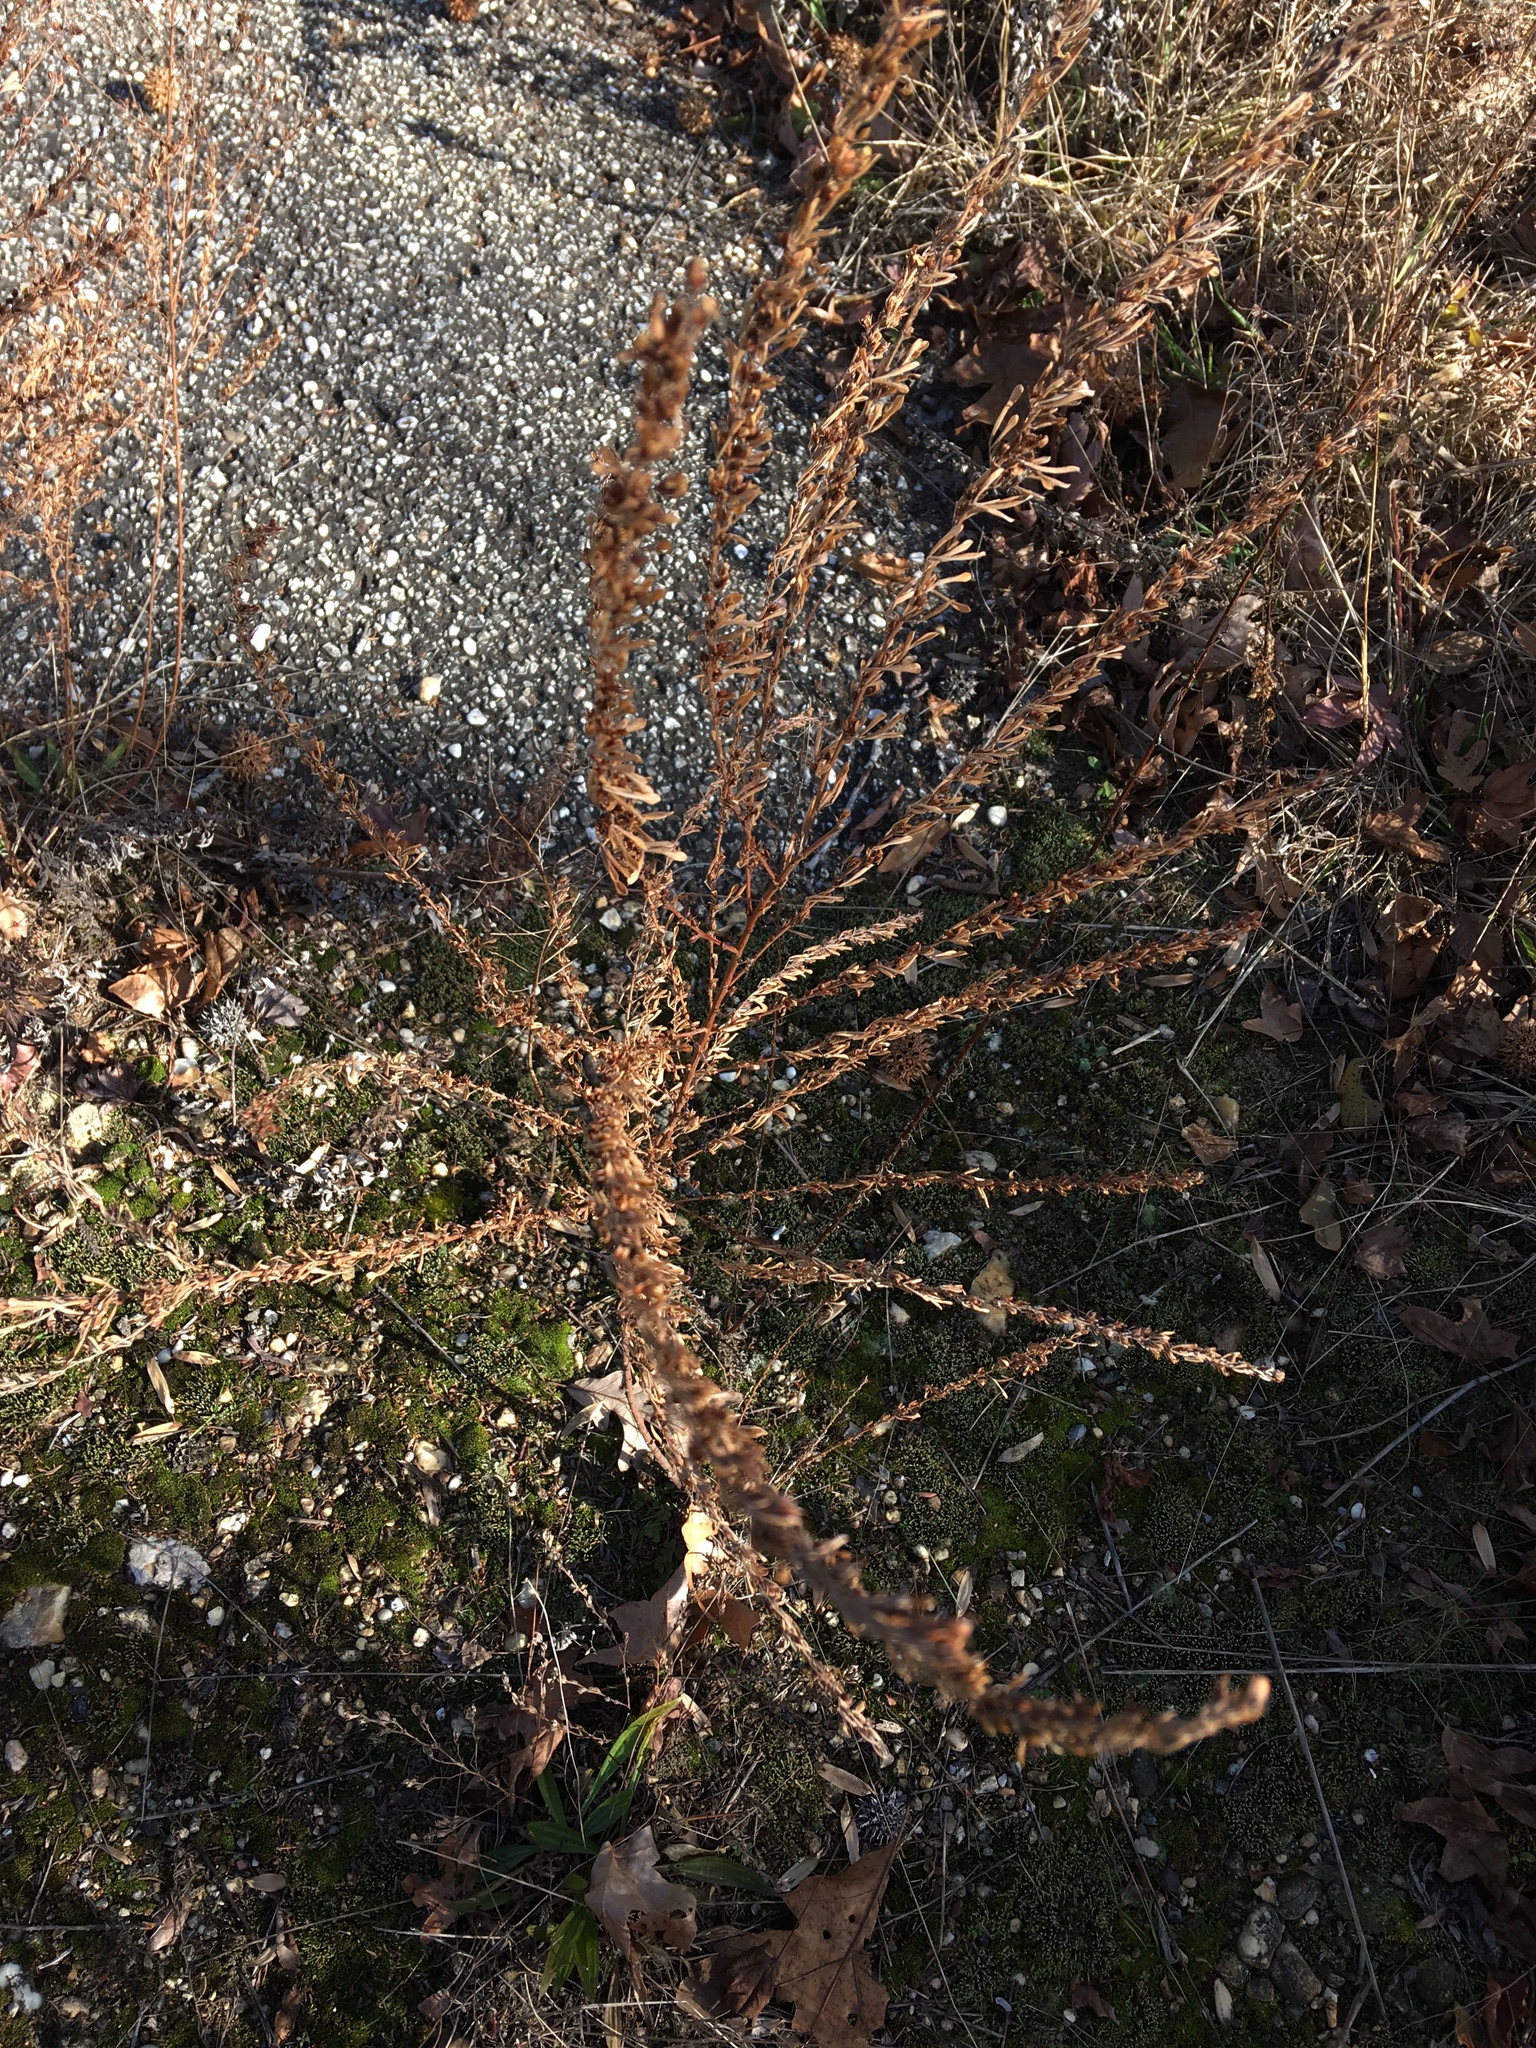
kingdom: Plantae
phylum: Tracheophyta
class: Magnoliopsida
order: Fabales
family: Fabaceae
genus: Lespedeza
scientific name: Lespedeza cuneata
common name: Chinese bush-clover
